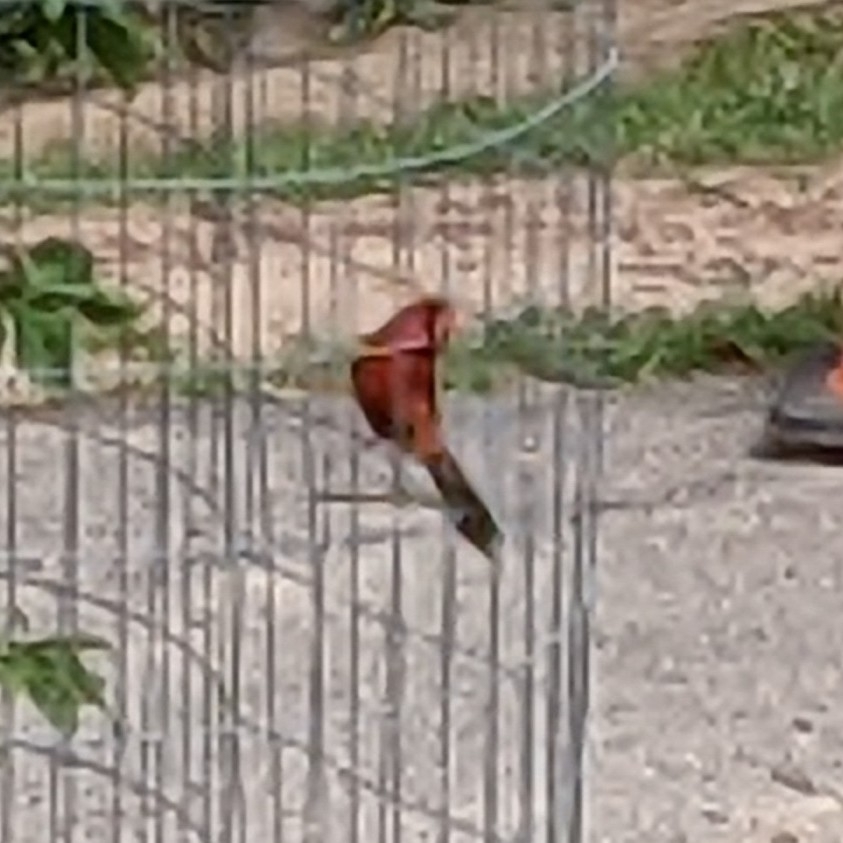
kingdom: Animalia
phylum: Chordata
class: Aves
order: Passeriformes
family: Cardinalidae
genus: Cardinalis
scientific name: Cardinalis cardinalis
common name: Northern cardinal
